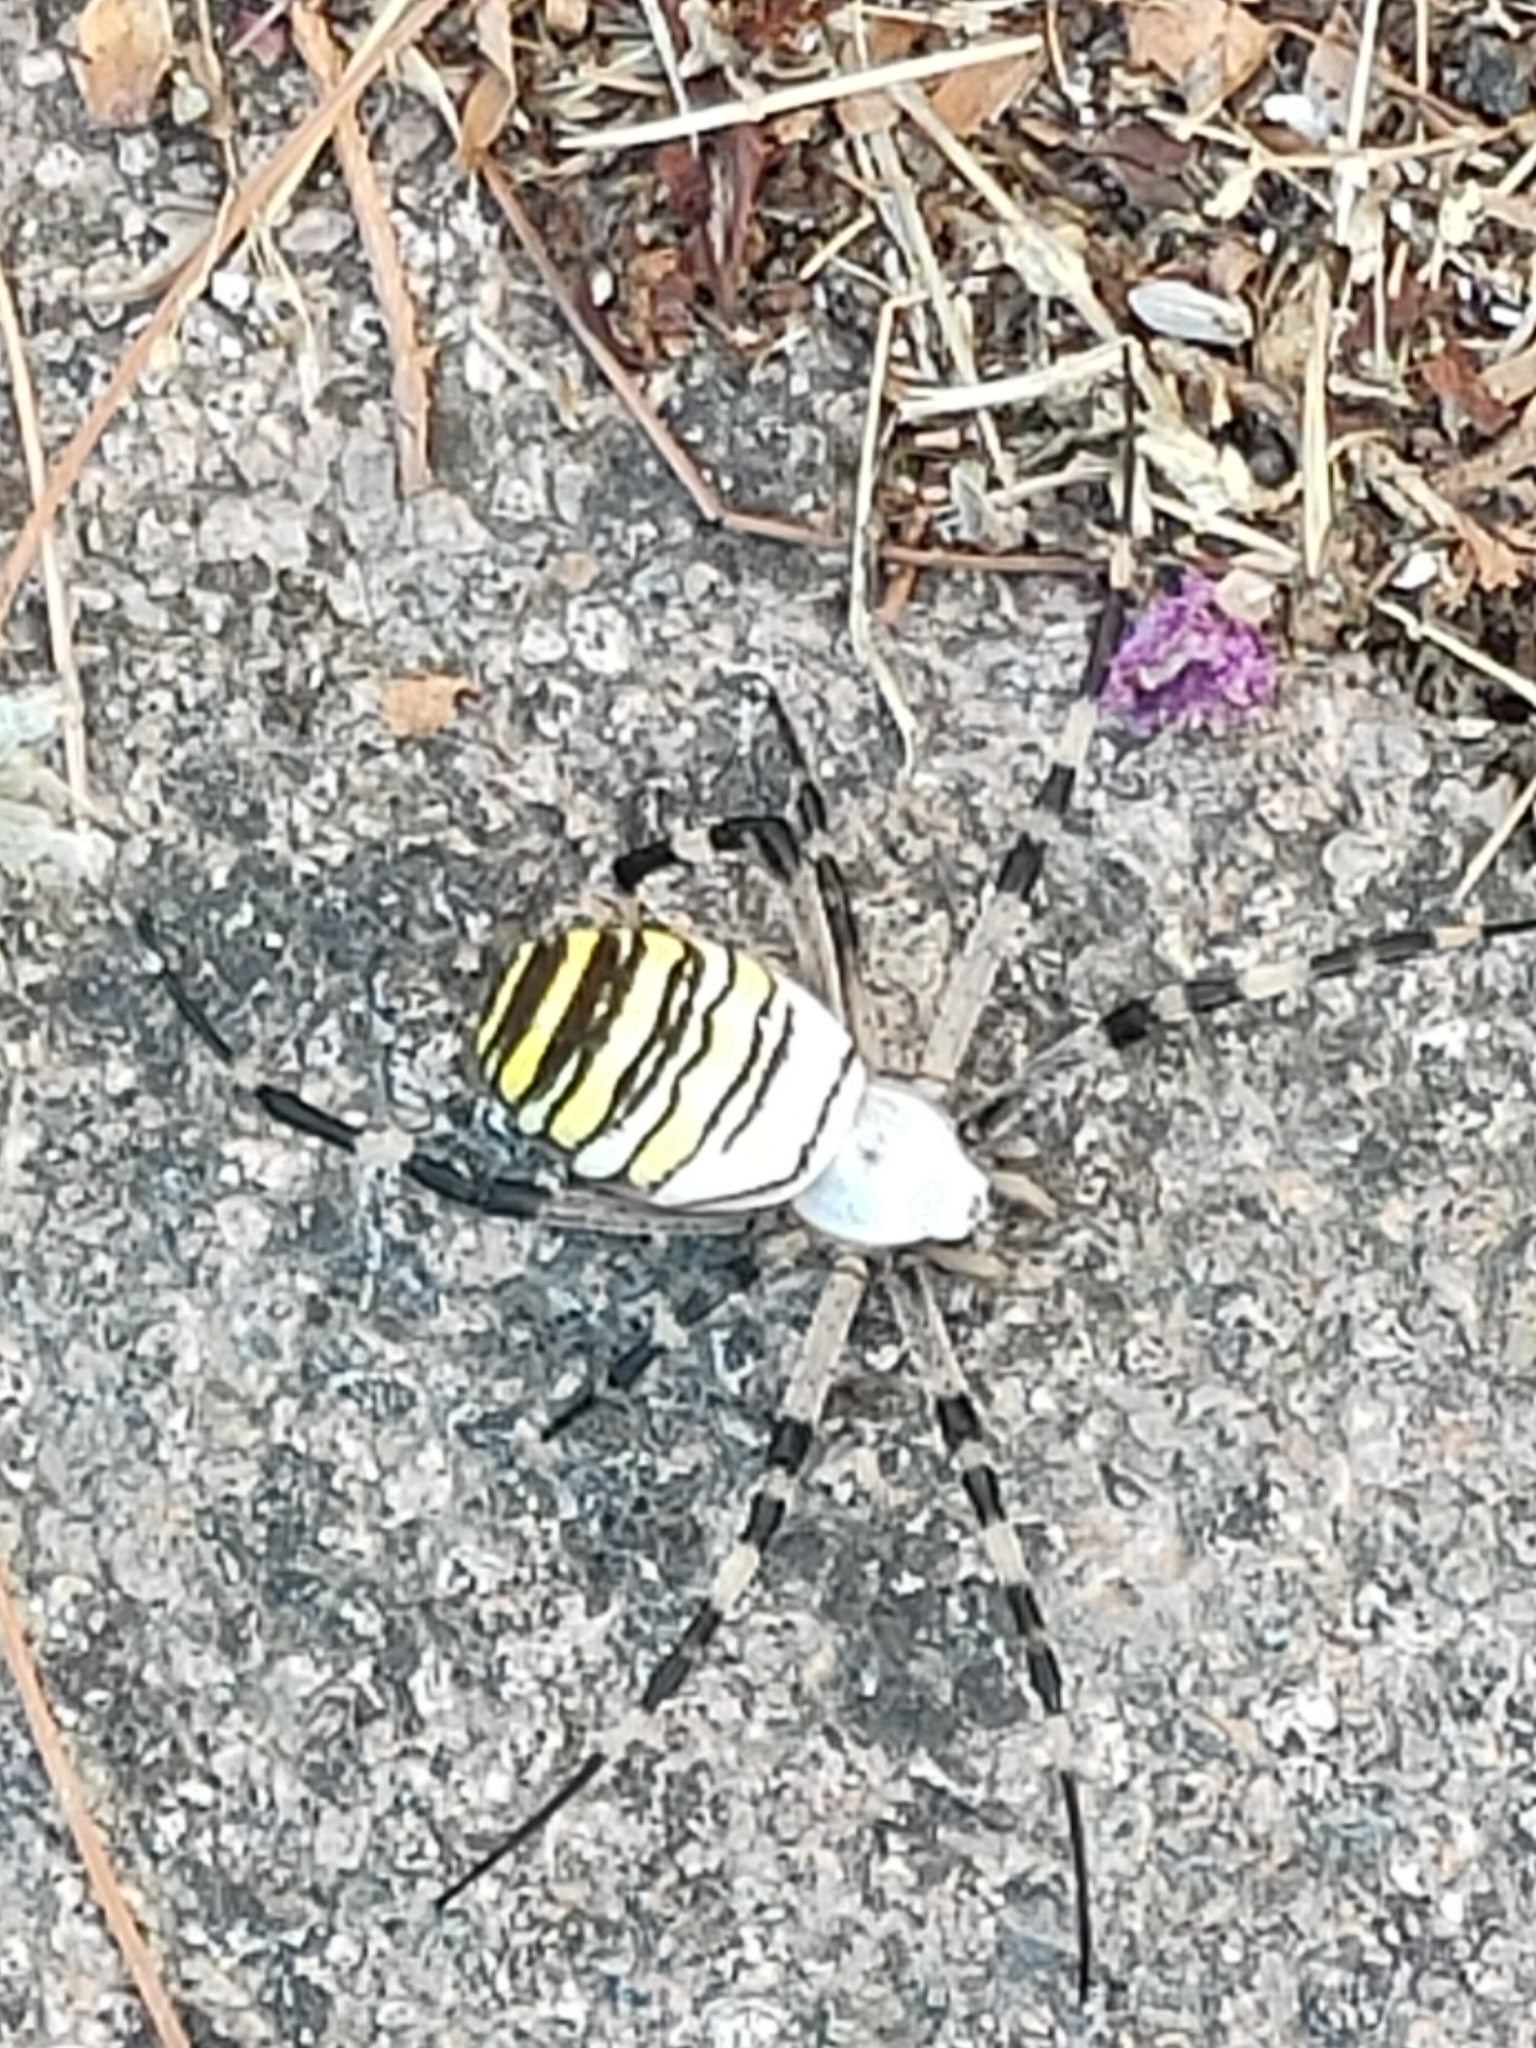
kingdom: Animalia
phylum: Arthropoda
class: Arachnida
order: Araneae
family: Araneidae
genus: Argiope
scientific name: Argiope bruennichi
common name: Wasp spider
